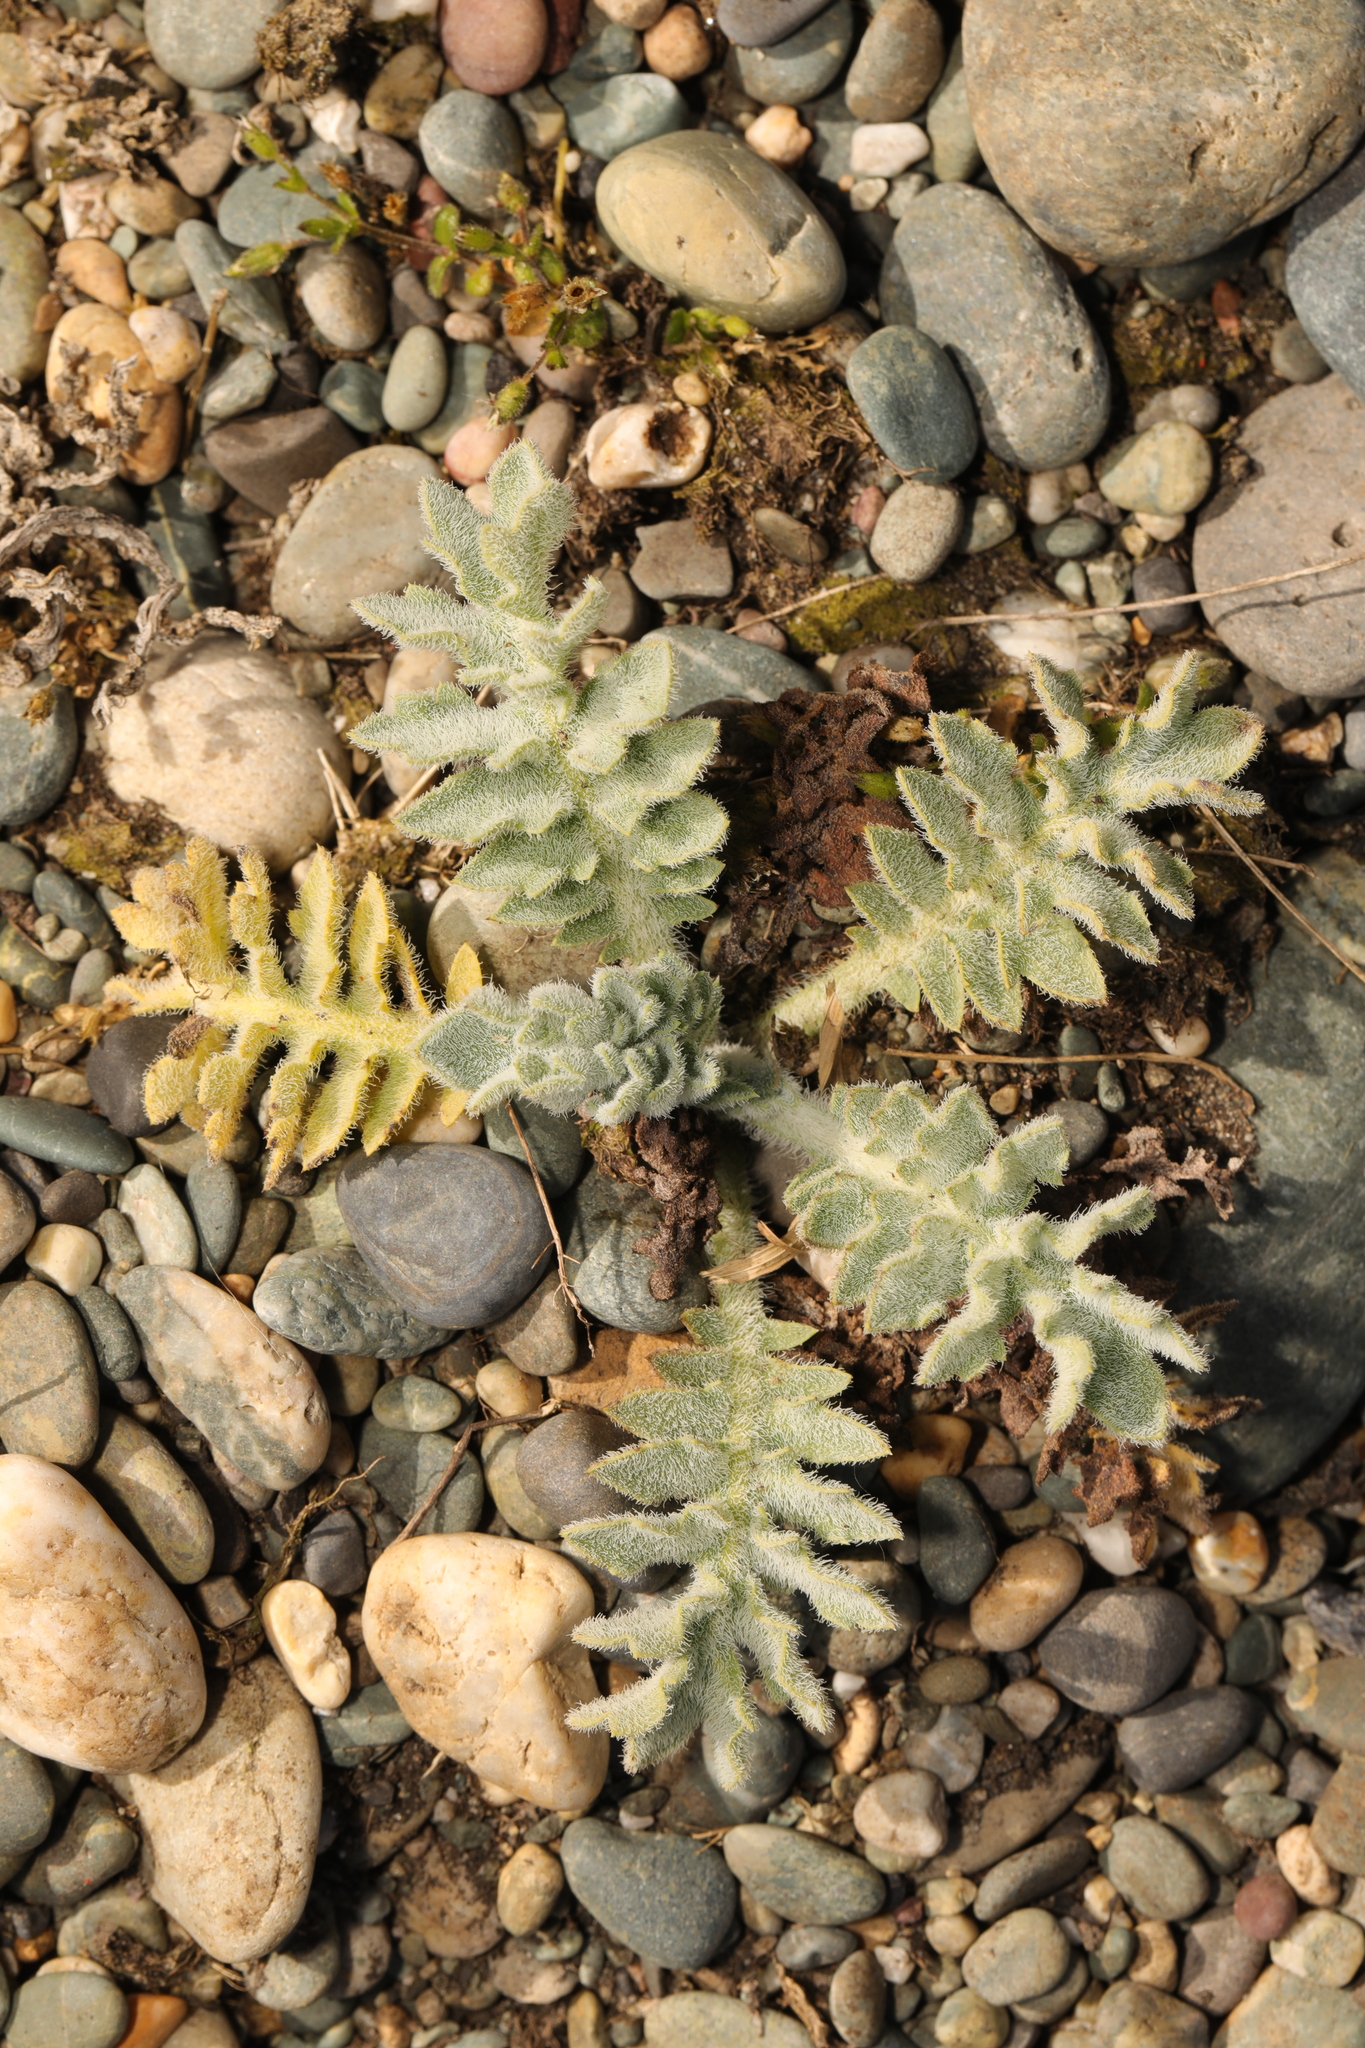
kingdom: Plantae
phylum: Tracheophyta
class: Magnoliopsida
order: Ranunculales
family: Papaveraceae
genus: Glaucium
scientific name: Glaucium flavum
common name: Yellow horned-poppy
